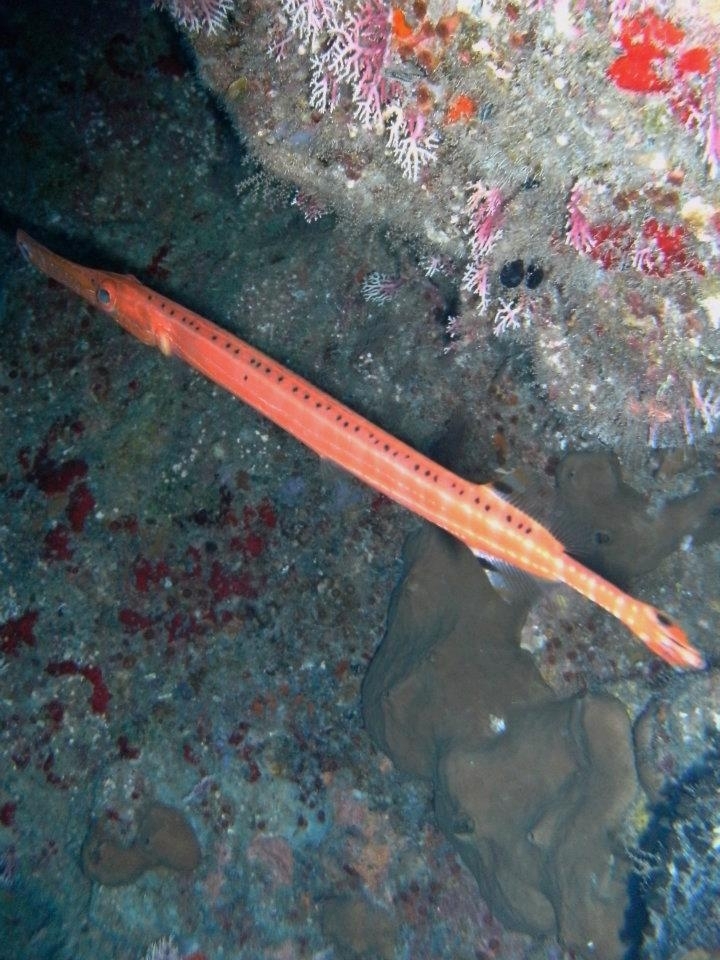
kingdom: Animalia
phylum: Chordata
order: Syngnathiformes
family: Aulostomidae
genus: Aulostomus
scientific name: Aulostomus maculatus
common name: West atlantic trumpetfish
